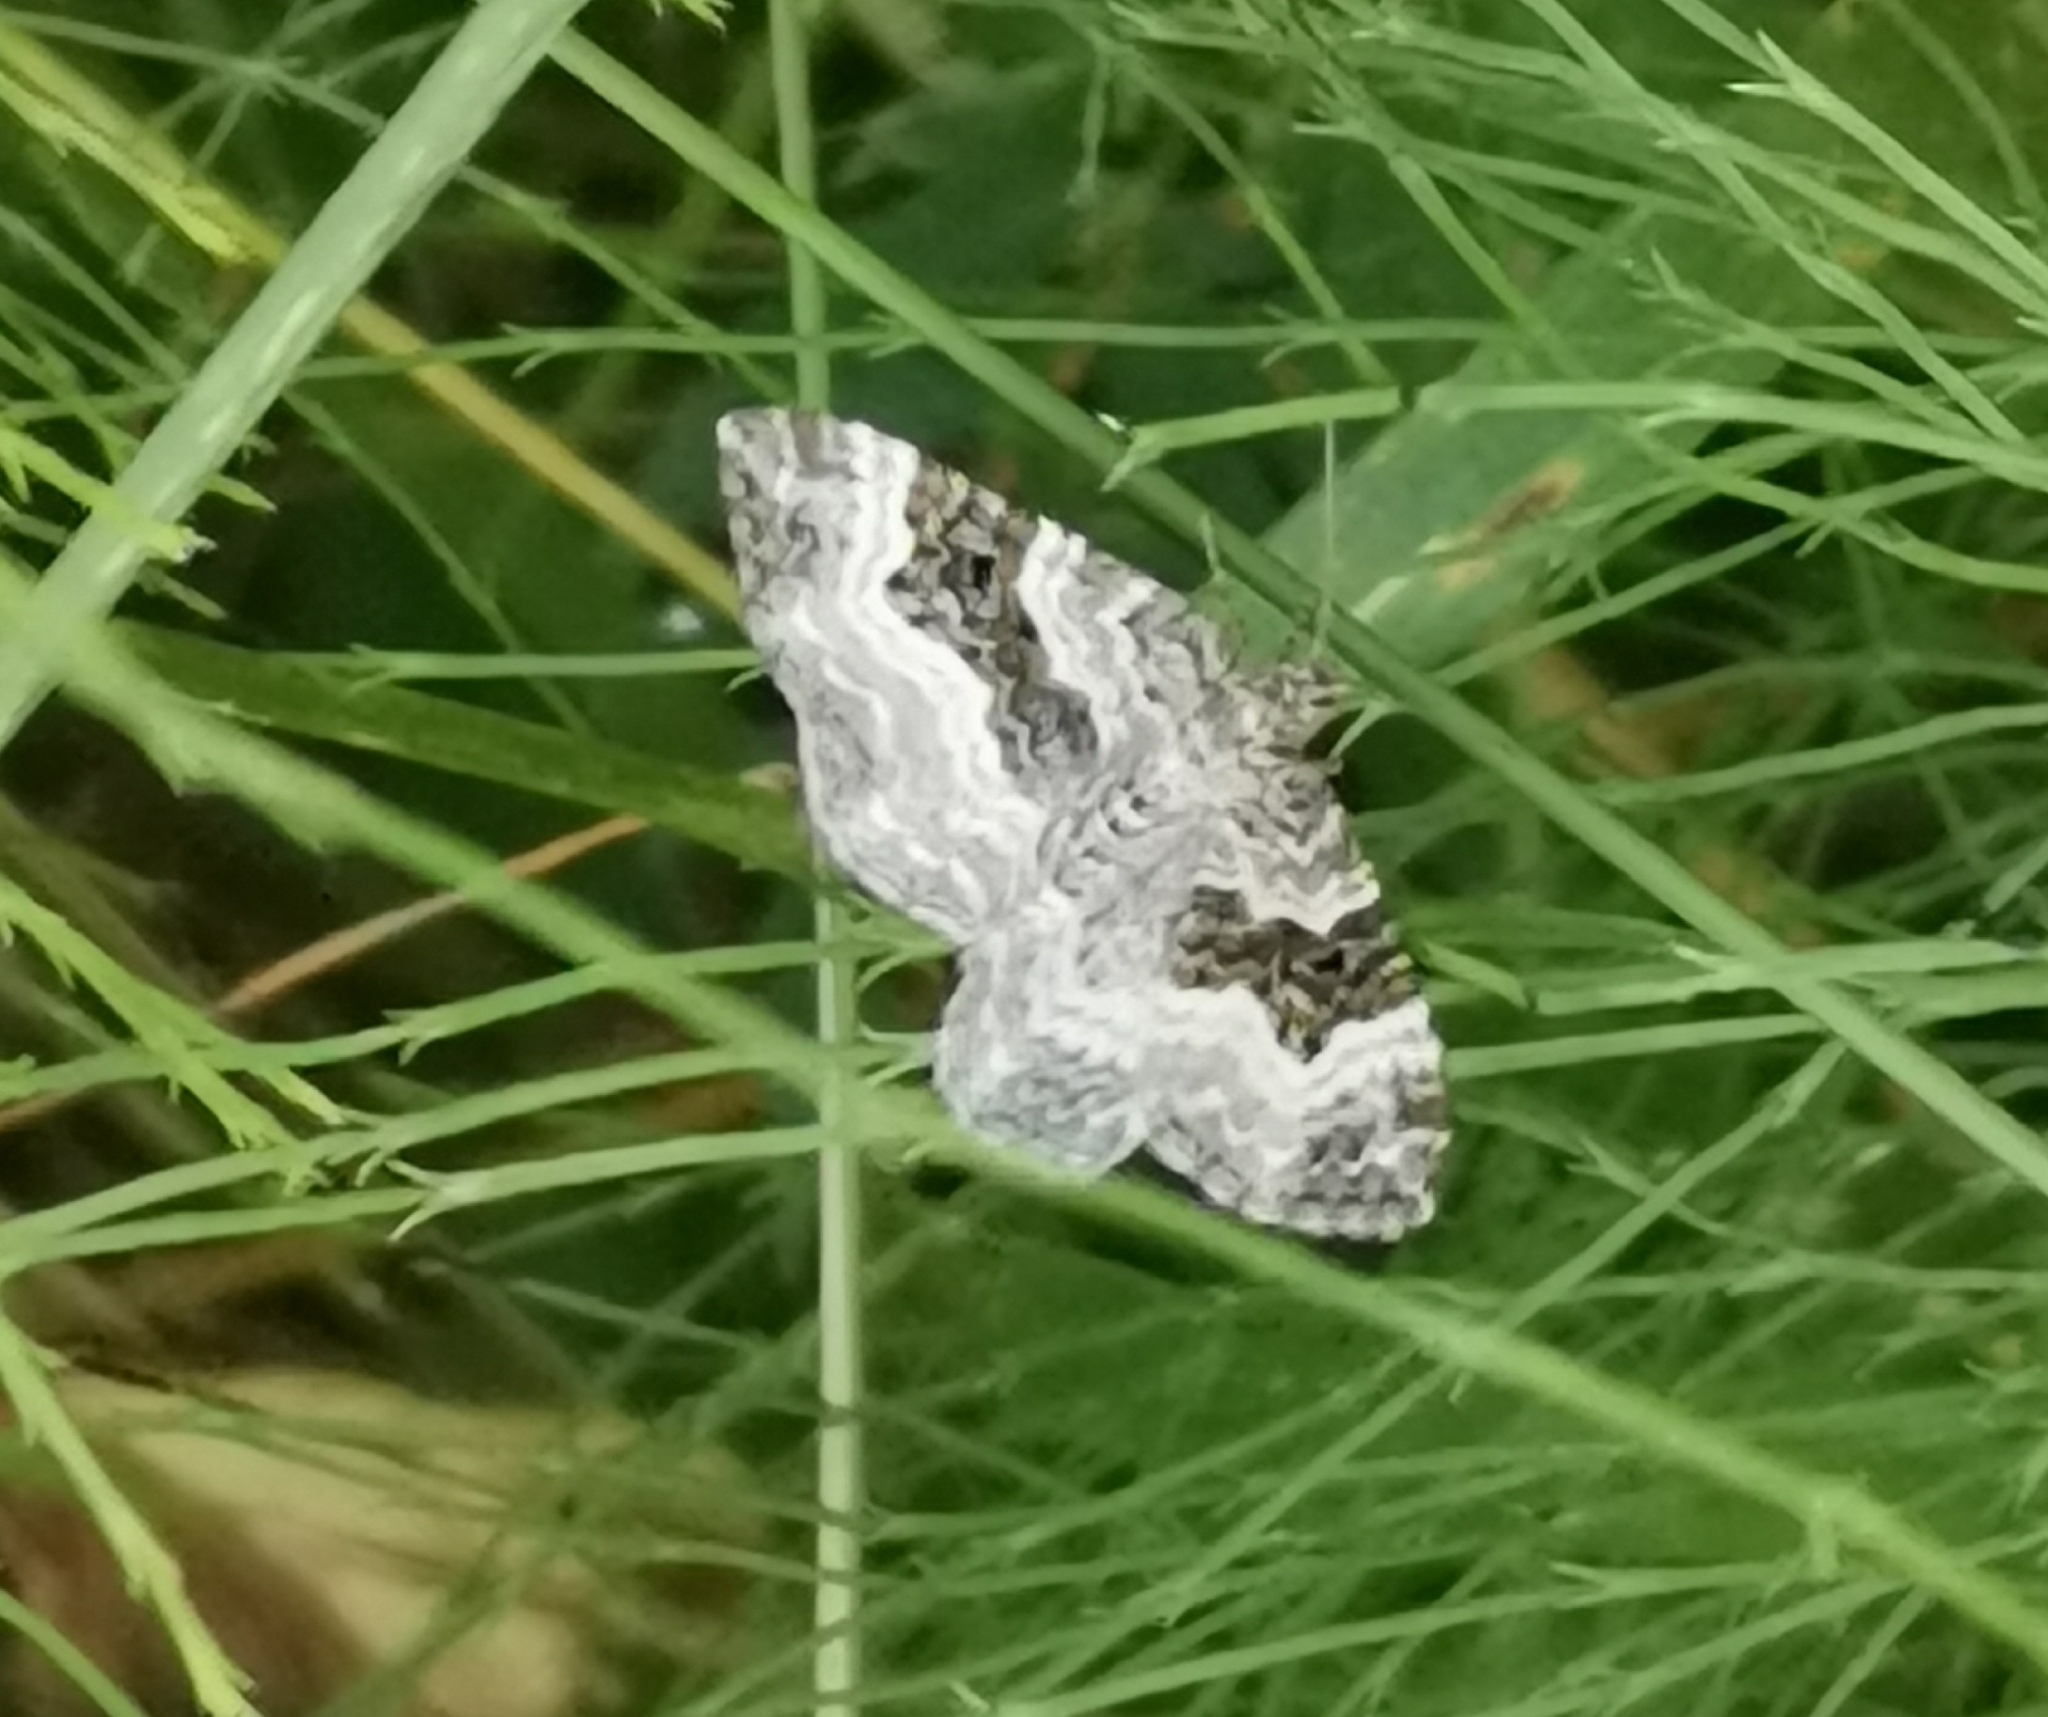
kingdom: Animalia
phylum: Arthropoda
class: Insecta
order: Lepidoptera
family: Geometridae
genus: Epirrhoe
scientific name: Epirrhoe alternata
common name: Common carpet
